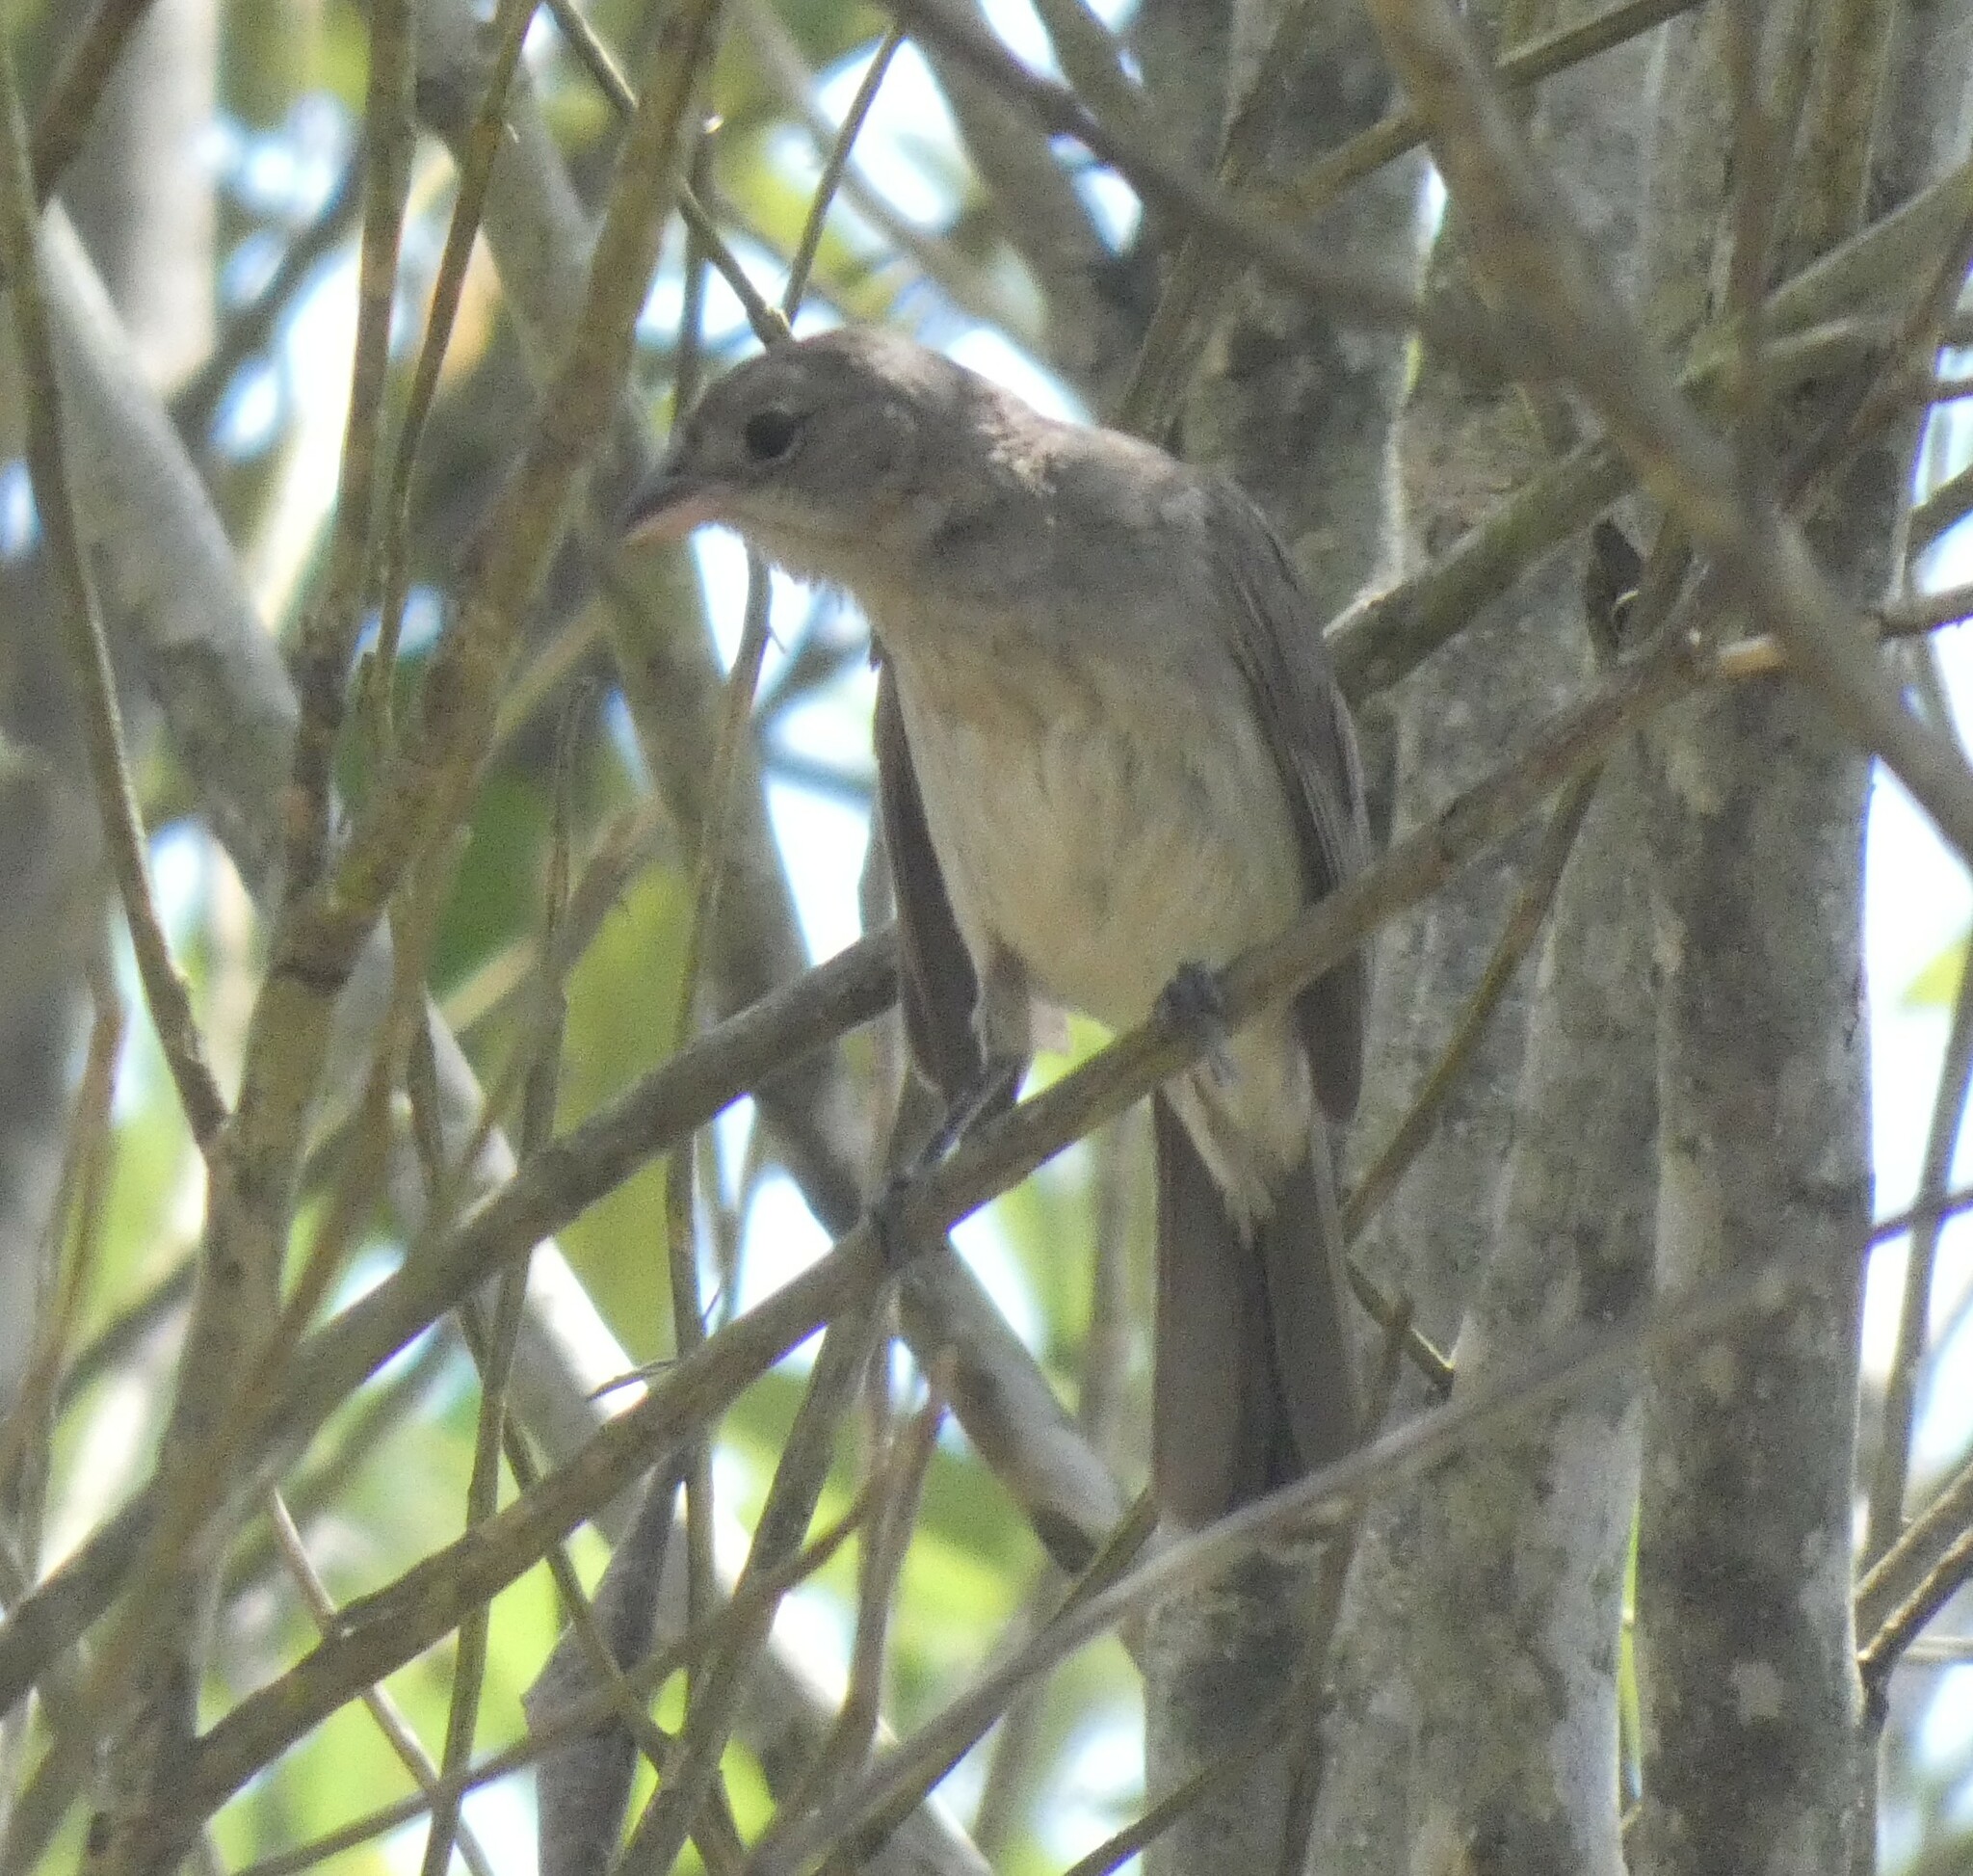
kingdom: Animalia
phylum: Chordata
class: Aves
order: Passeriformes
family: Thraupidae
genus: Coryphospingus
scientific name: Coryphospingus pileatus
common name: Grey pileated finch
